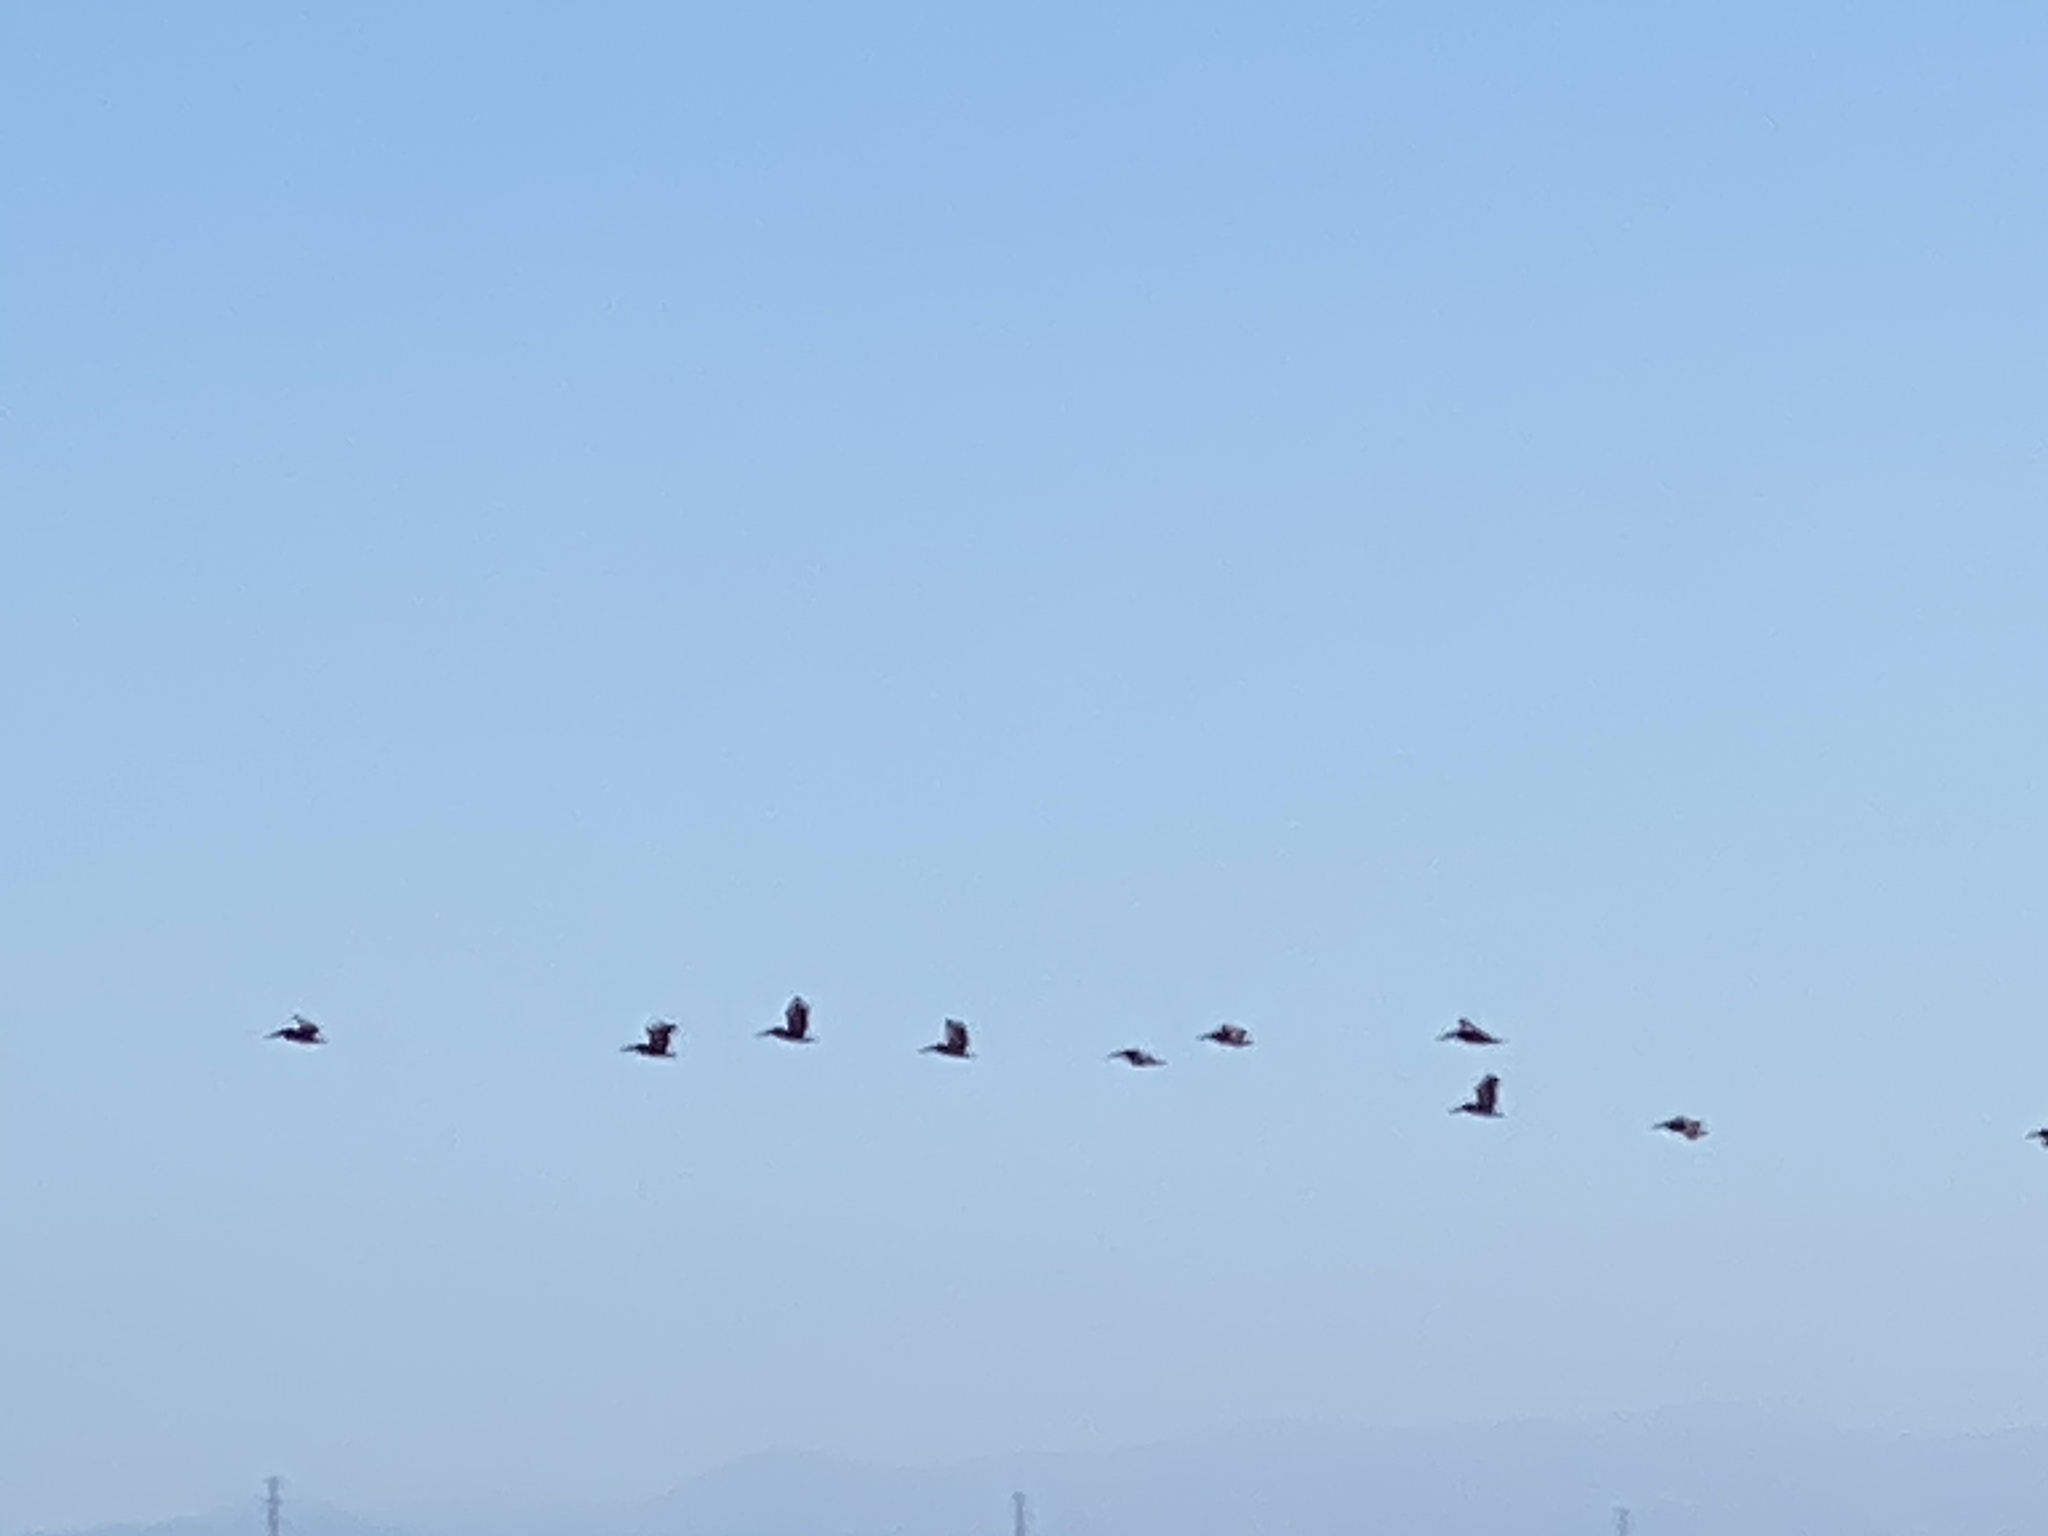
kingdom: Animalia
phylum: Chordata
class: Aves
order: Pelecaniformes
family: Pelecanidae
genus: Pelecanus
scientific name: Pelecanus occidentalis
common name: Brown pelican
